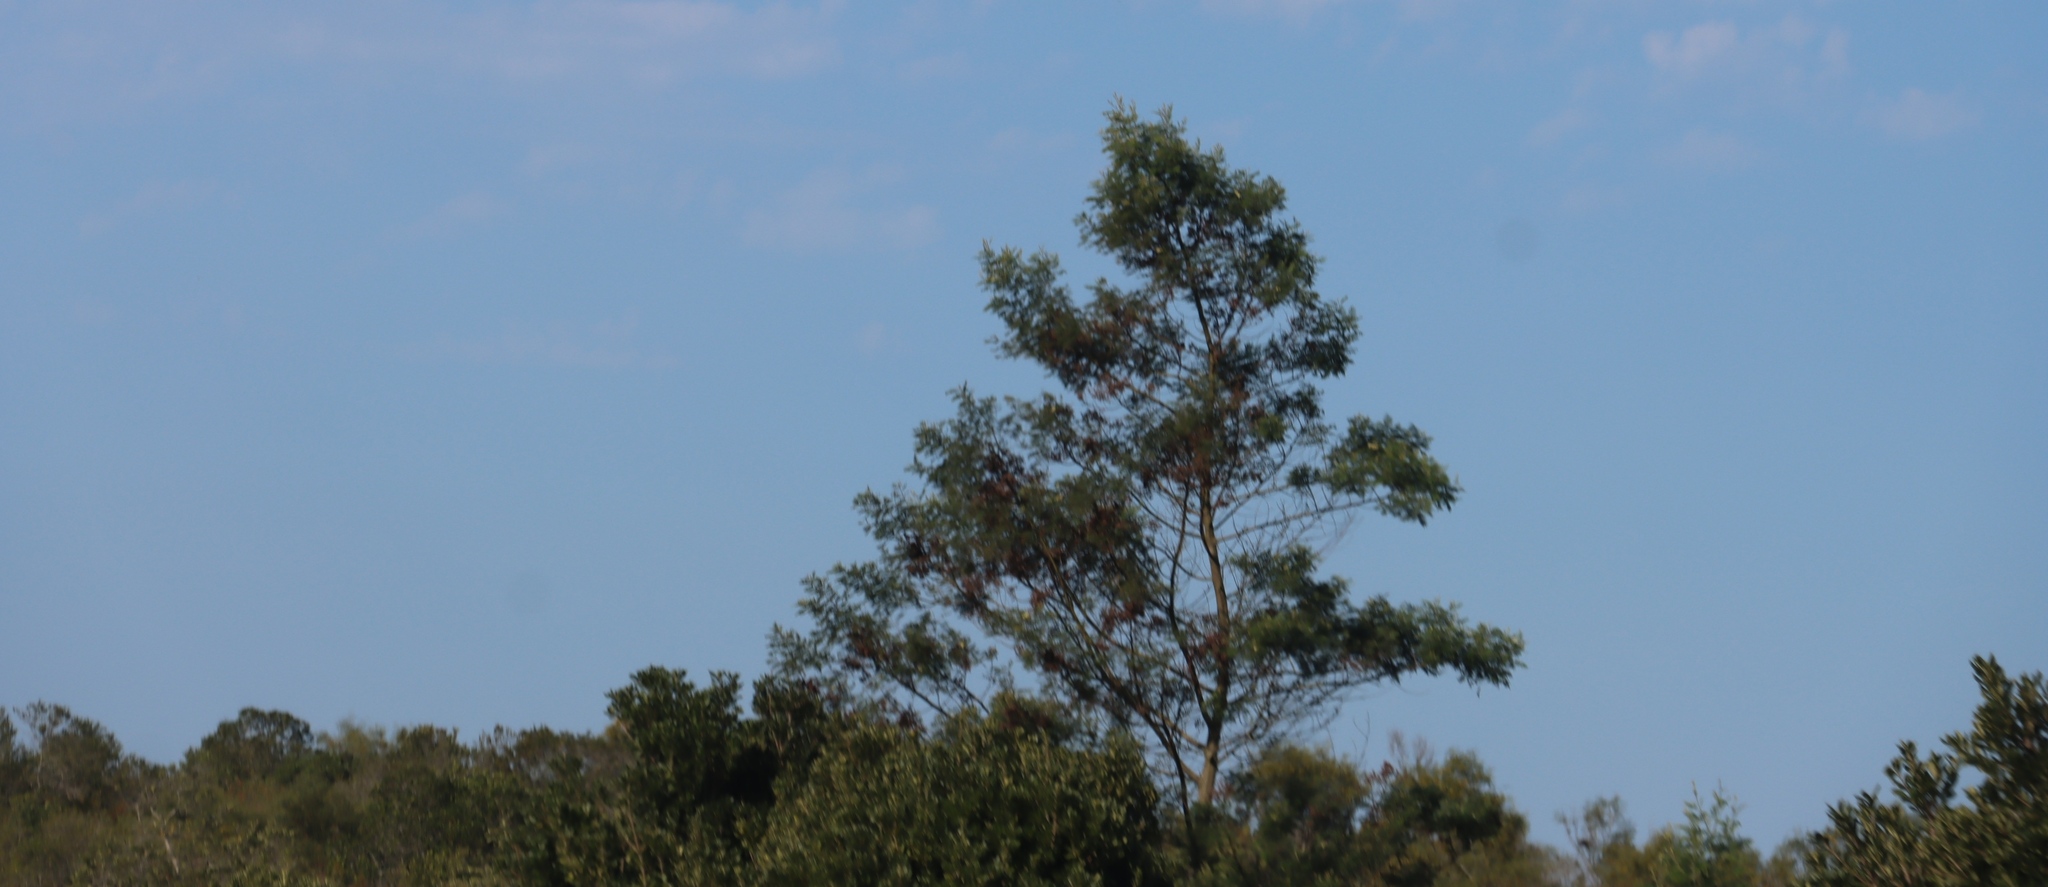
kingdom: Plantae
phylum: Tracheophyta
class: Magnoliopsida
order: Fabales
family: Fabaceae
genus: Acacia
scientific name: Acacia mearnsii
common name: Black wattle
